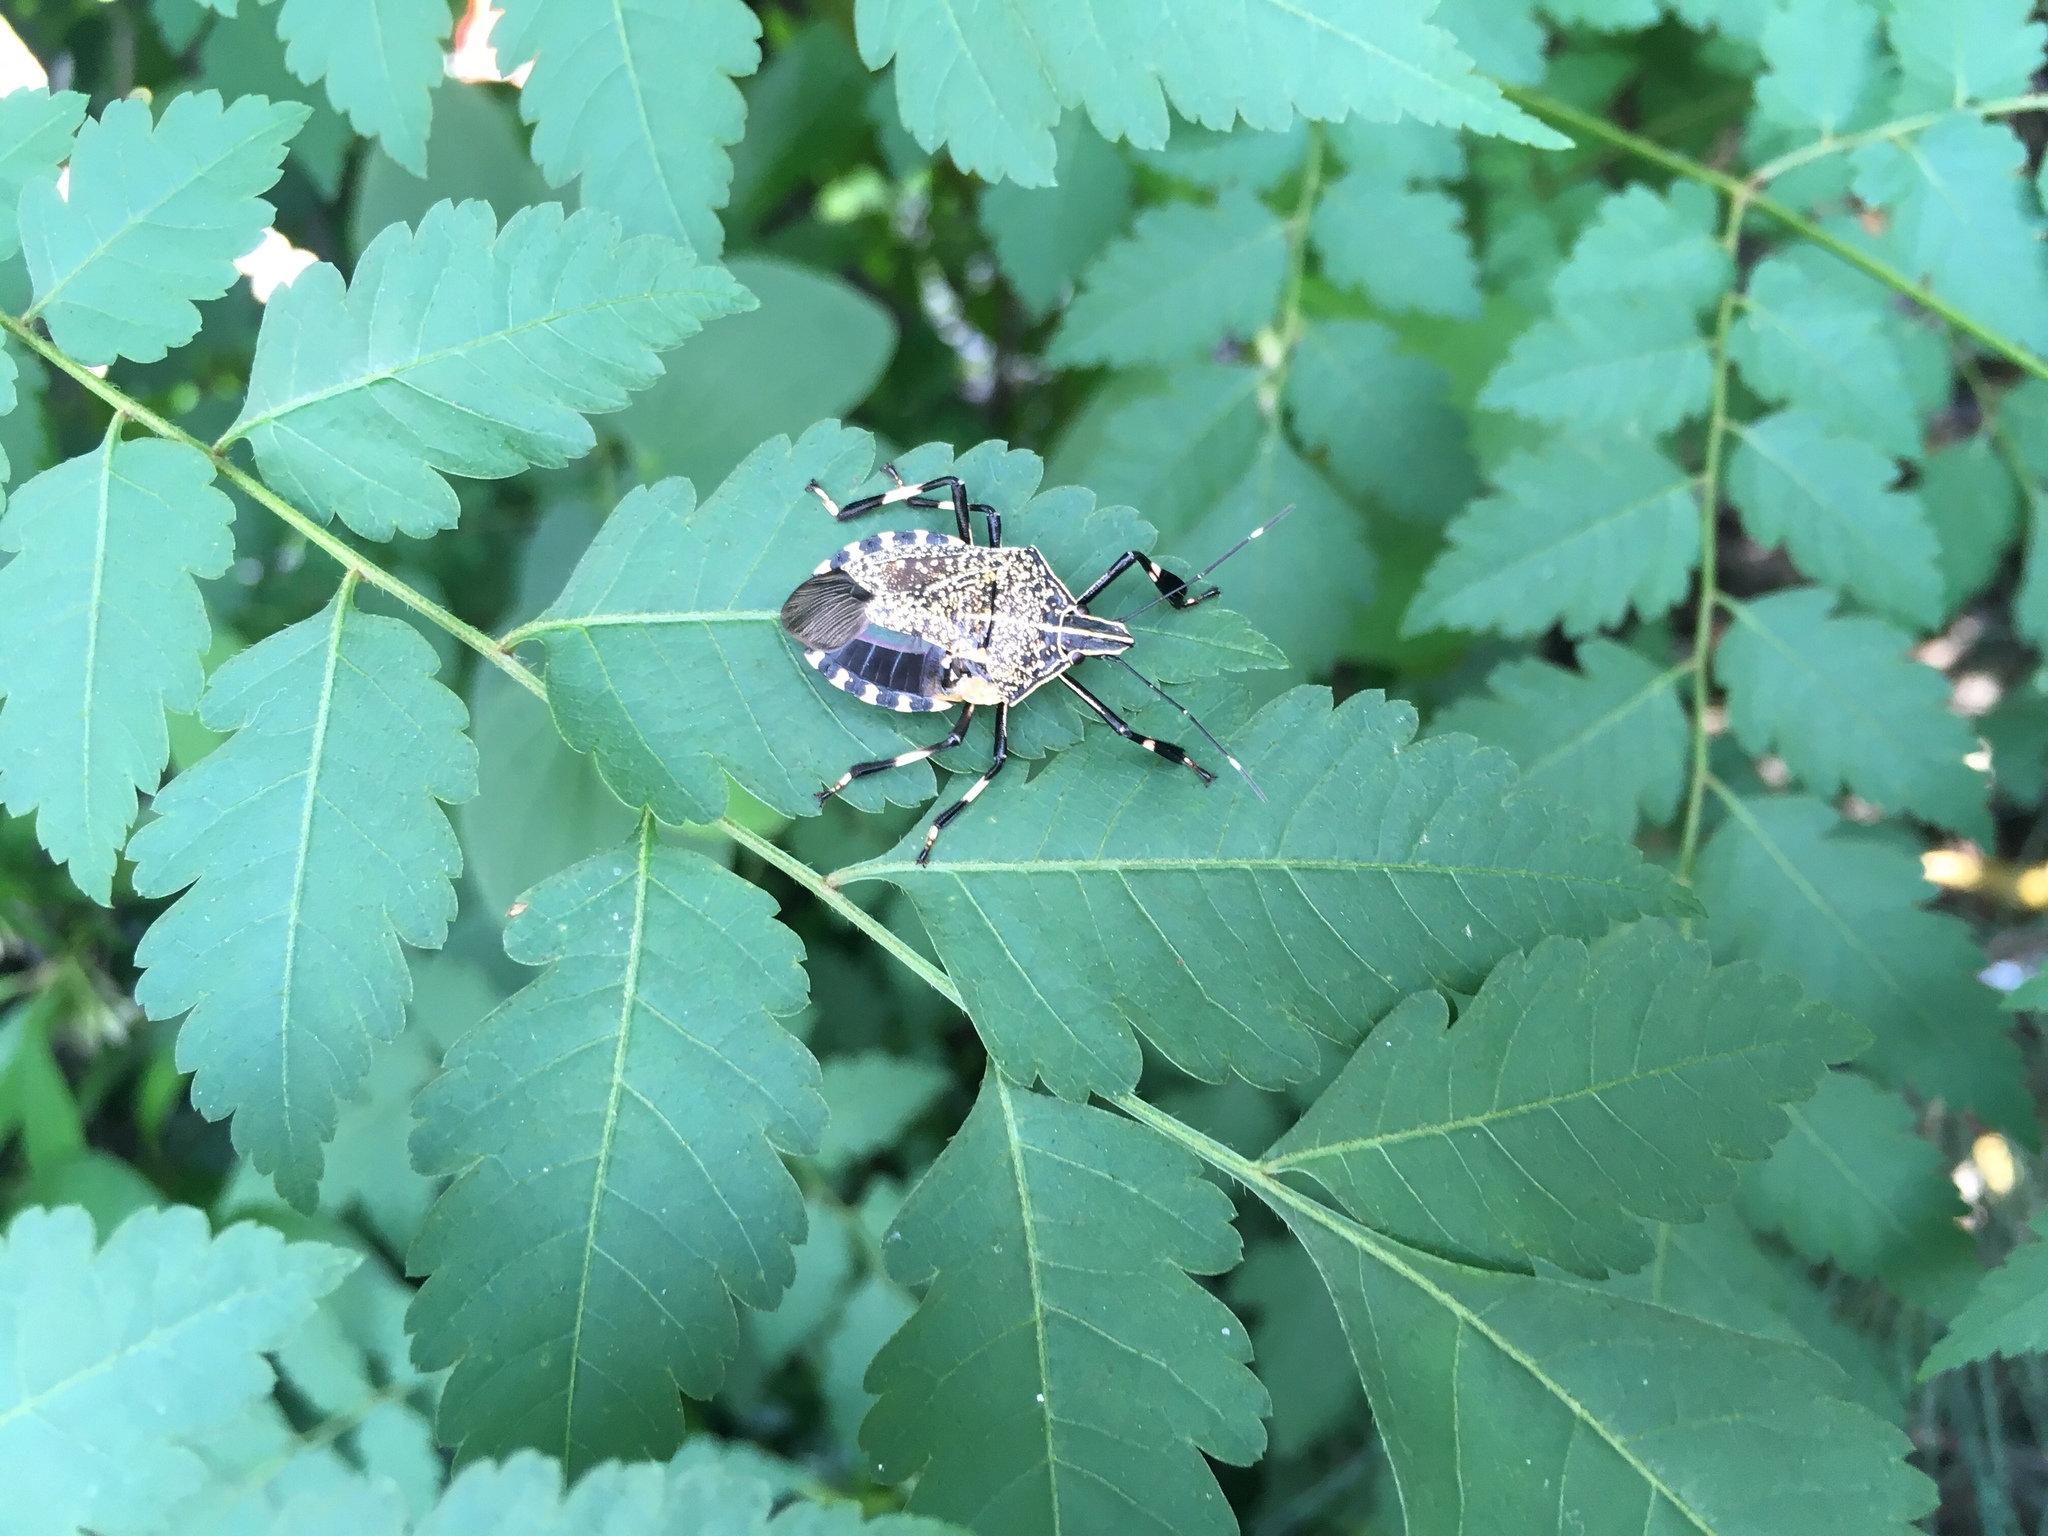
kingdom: Animalia
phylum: Arthropoda
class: Insecta
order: Hemiptera
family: Pentatomidae
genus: Erthesina
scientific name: Erthesina fullo
